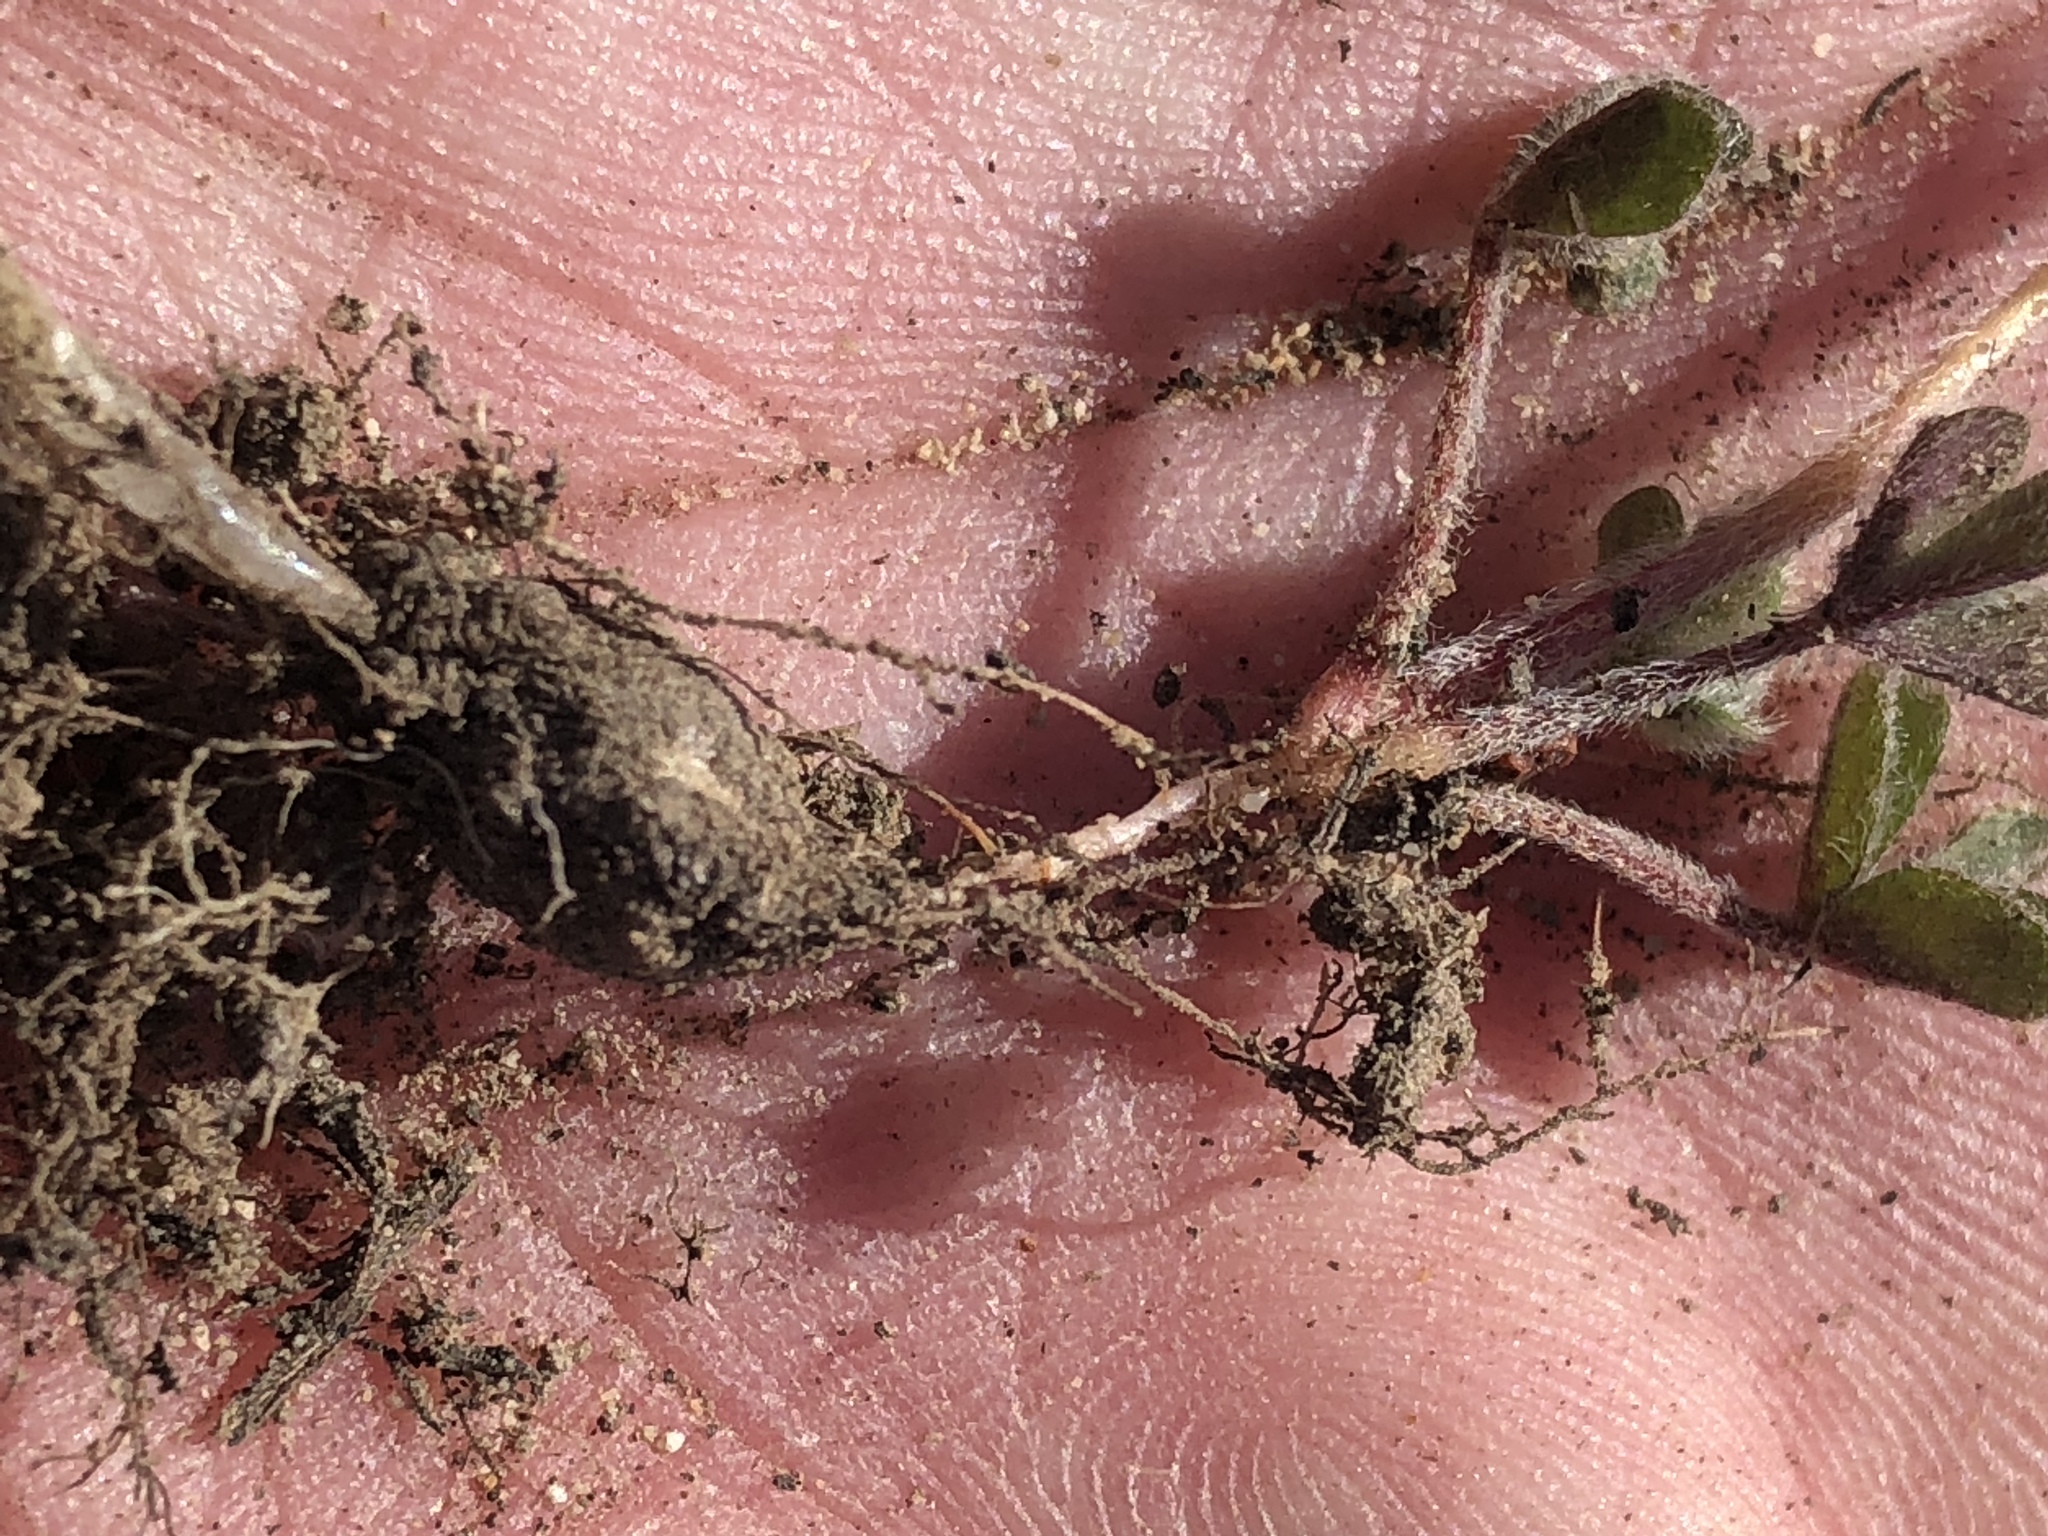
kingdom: Plantae
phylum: Tracheophyta
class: Magnoliopsida
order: Oxalidales
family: Oxalidaceae
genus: Oxalis
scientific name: Oxalis obtusa
